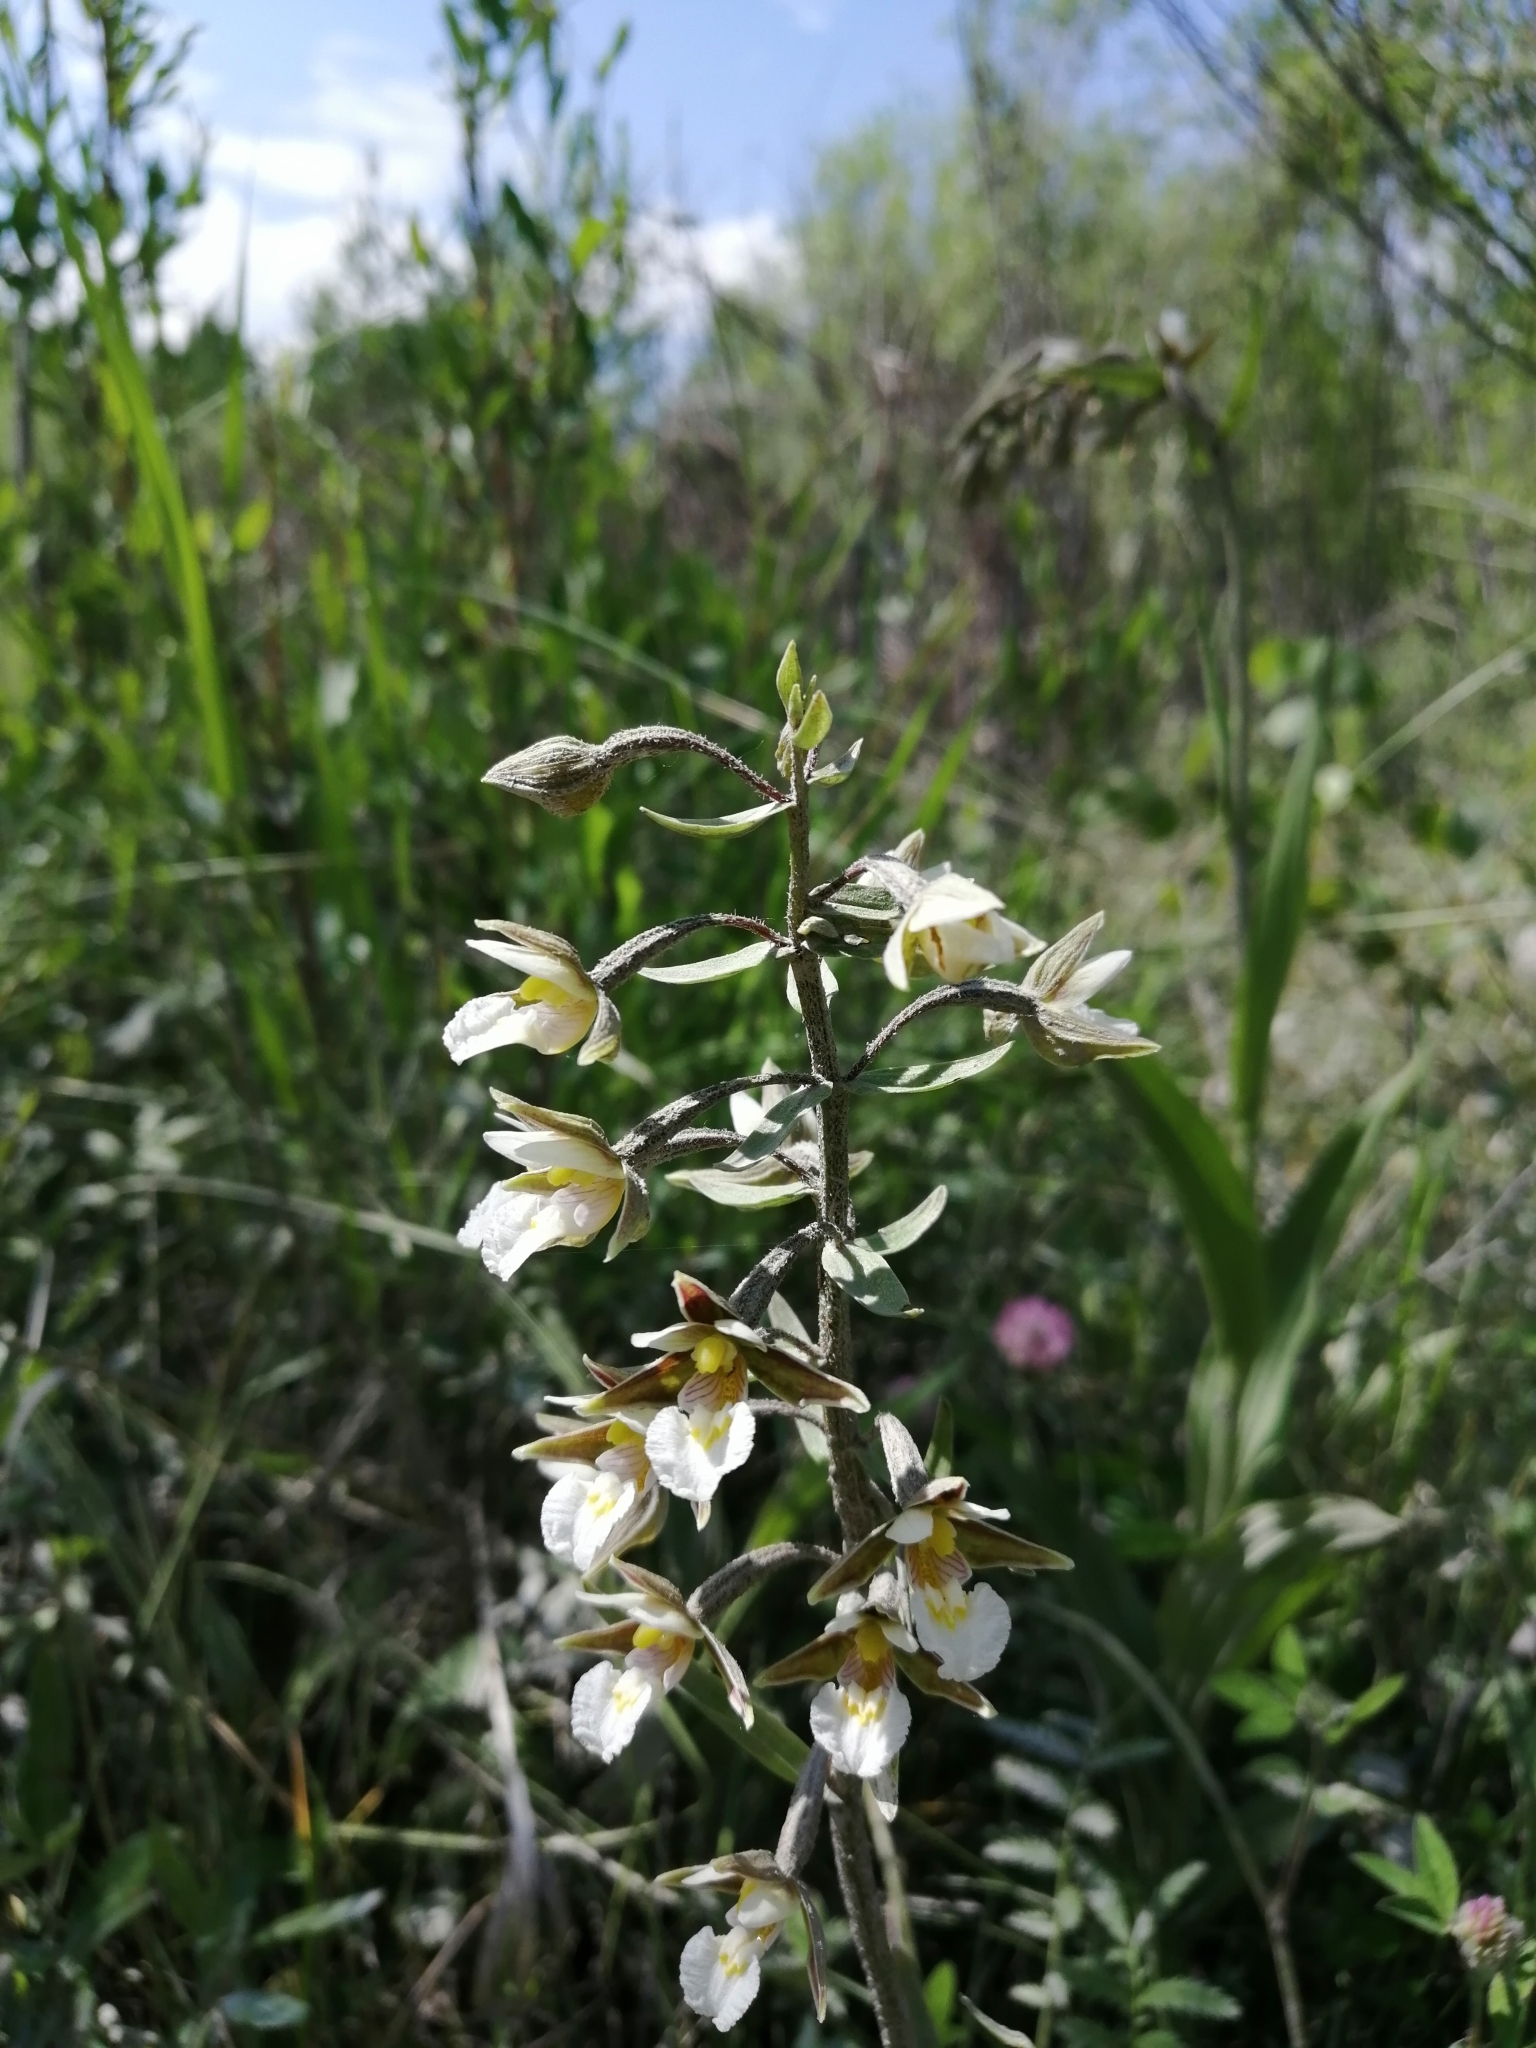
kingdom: Plantae
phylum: Tracheophyta
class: Liliopsida
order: Asparagales
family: Orchidaceae
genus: Epipactis
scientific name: Epipactis palustris
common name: Marsh helleborine
